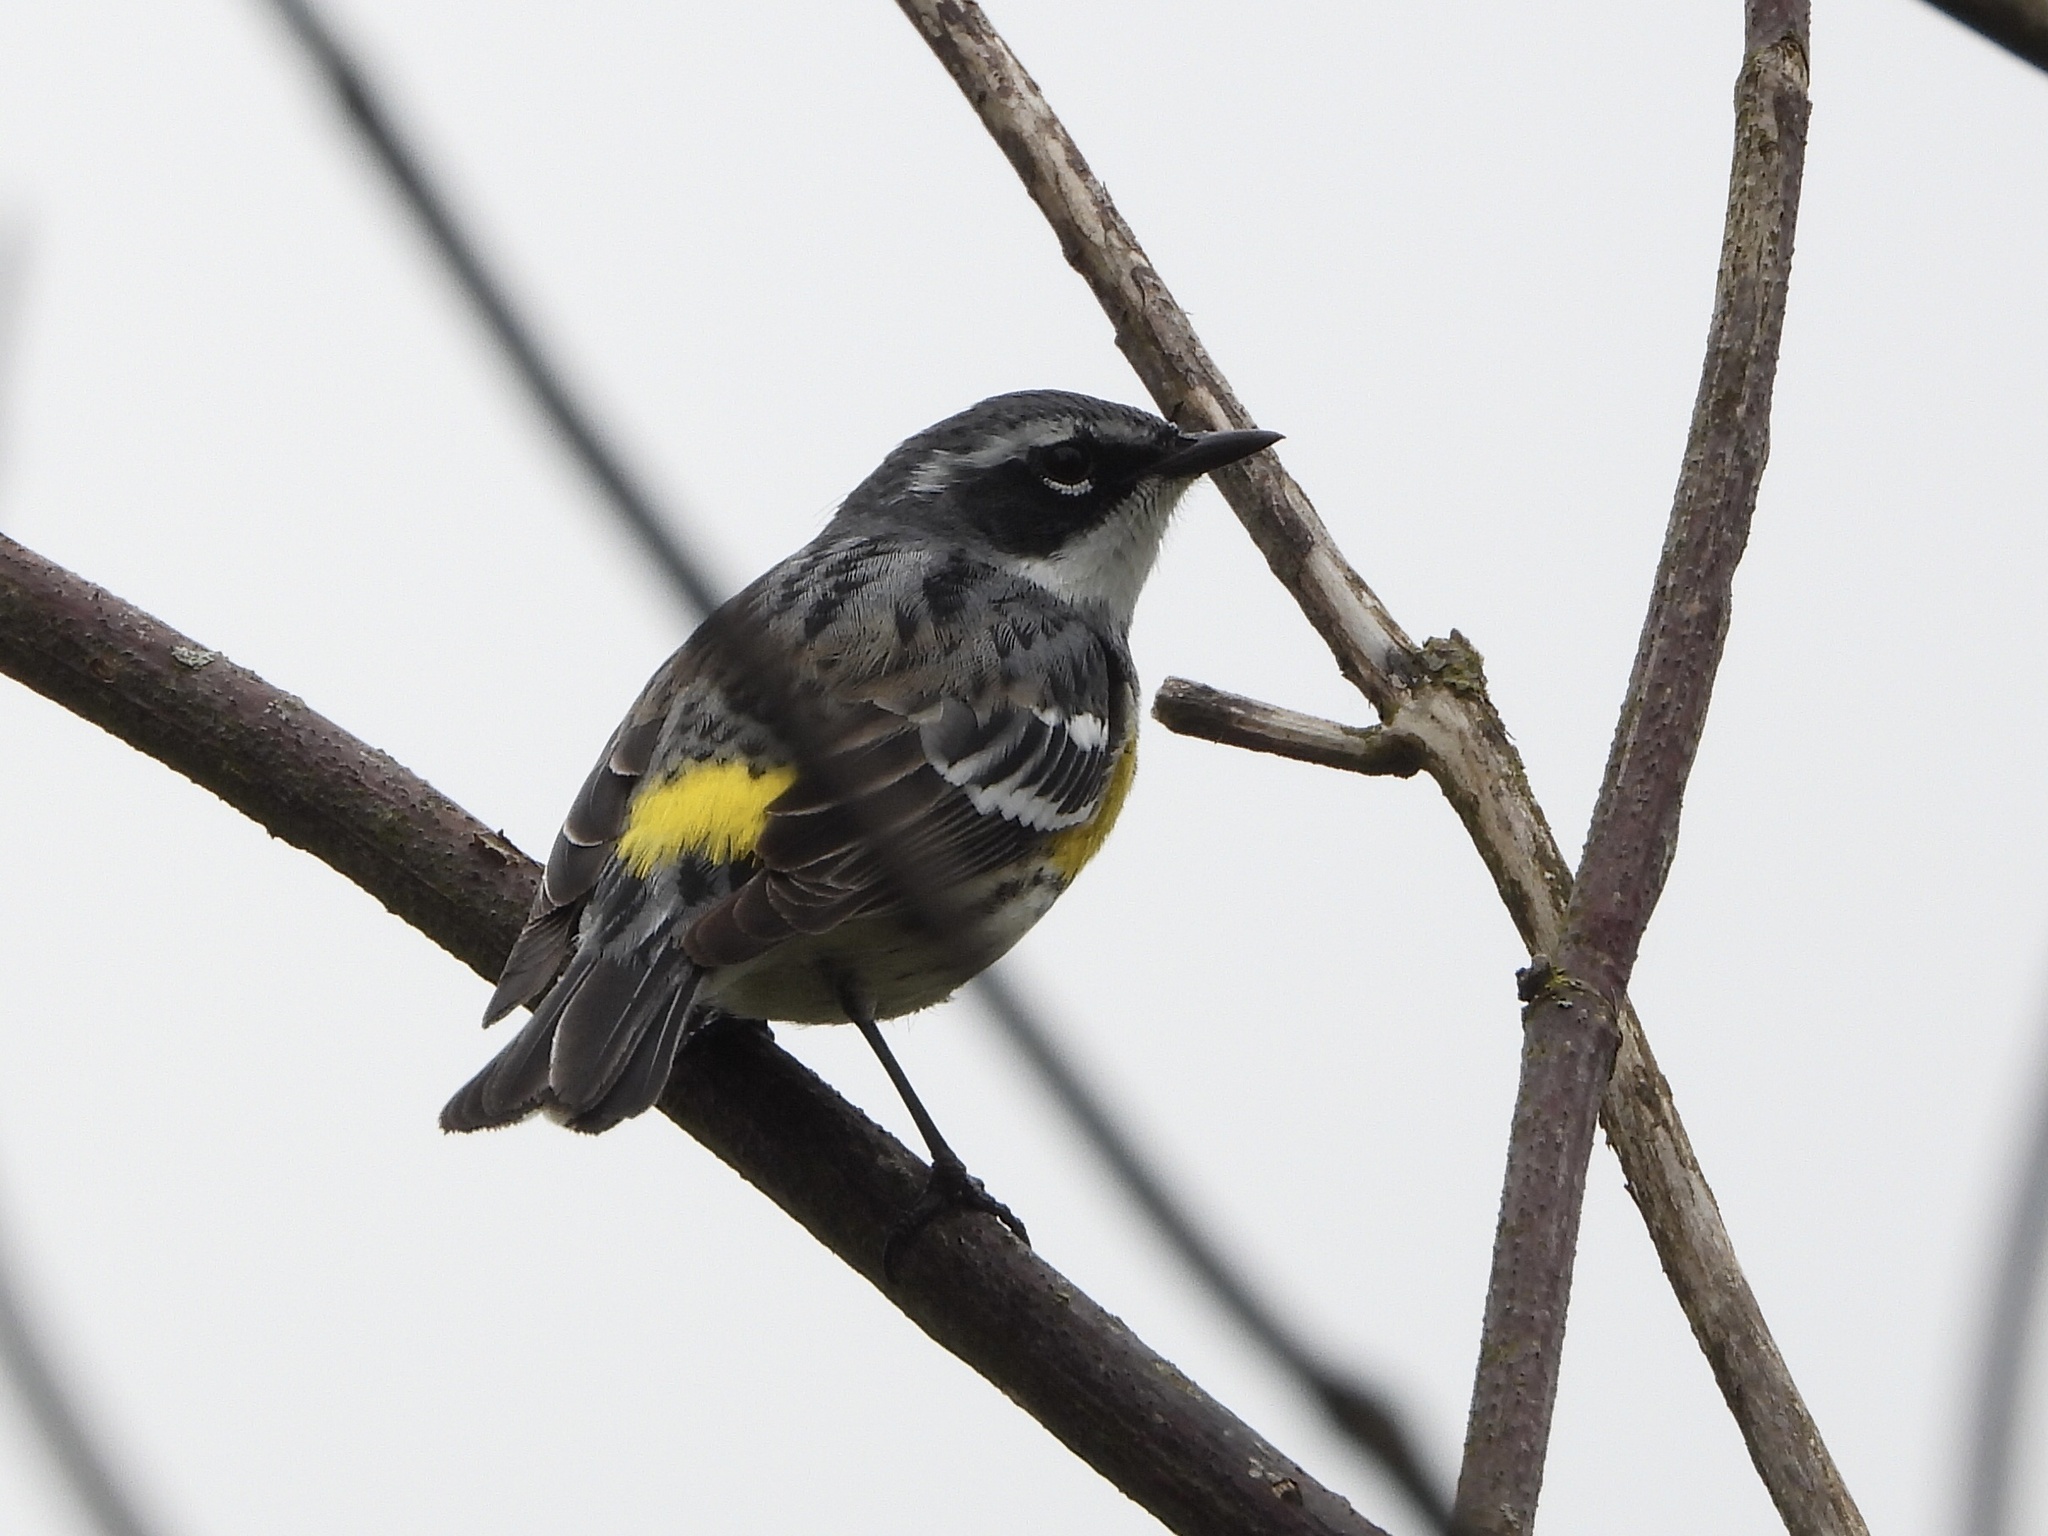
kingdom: Animalia
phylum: Chordata
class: Aves
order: Passeriformes
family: Parulidae
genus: Setophaga
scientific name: Setophaga coronata
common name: Myrtle warbler
